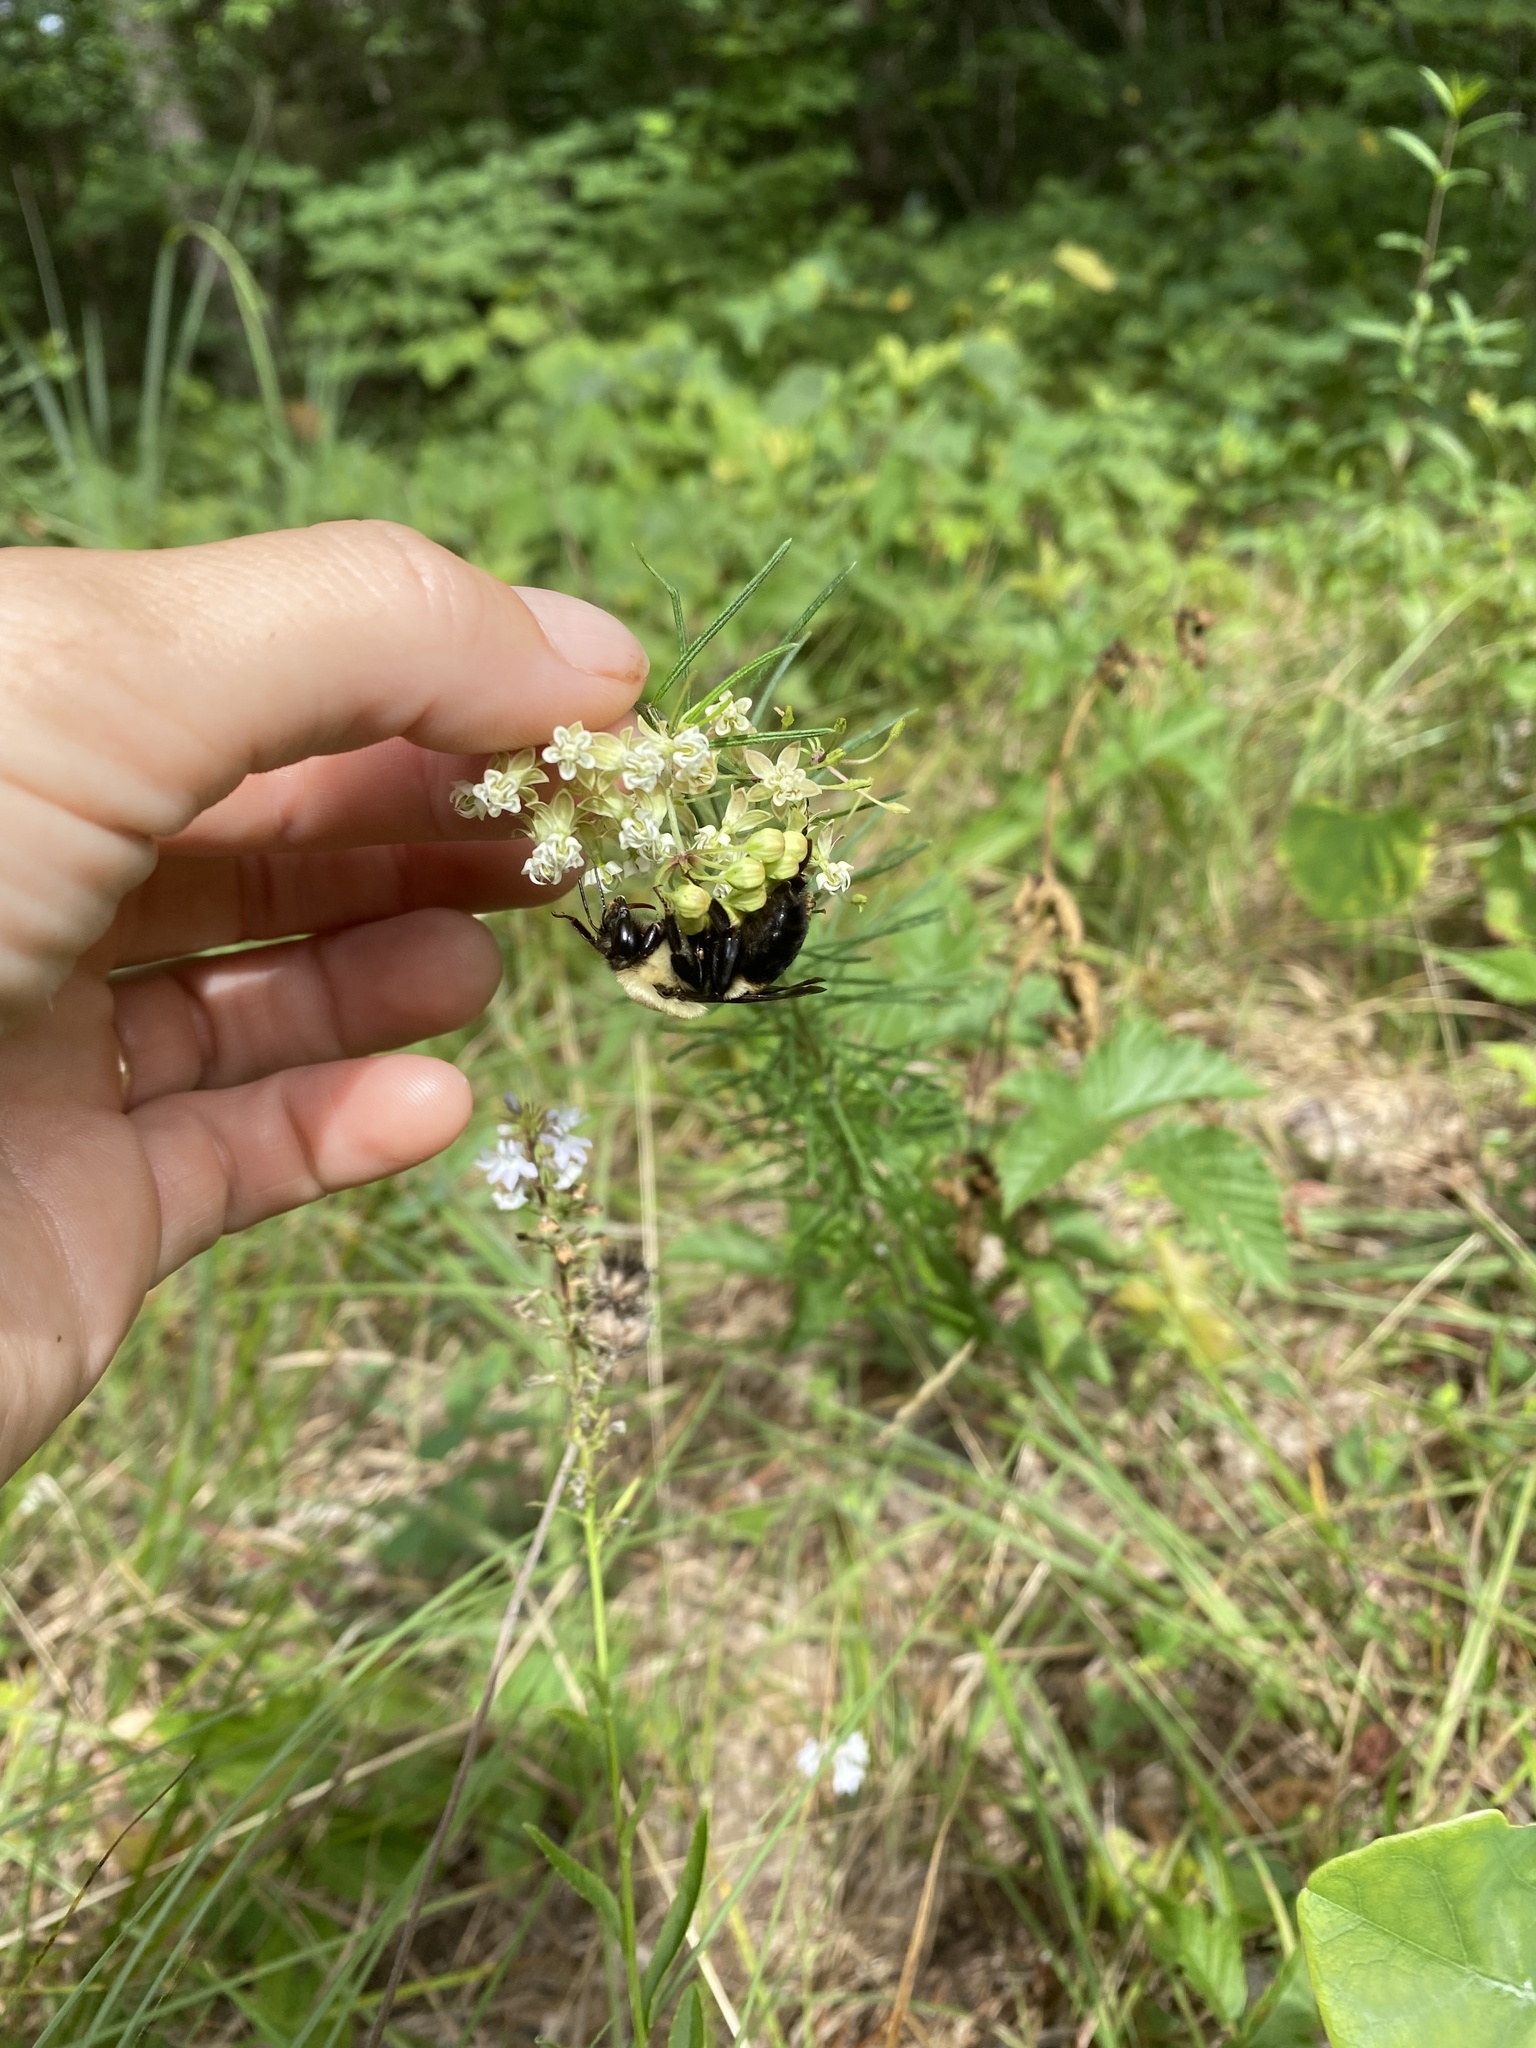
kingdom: Animalia
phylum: Arthropoda
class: Insecta
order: Hymenoptera
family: Apidae
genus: Bombus
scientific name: Bombus griseocollis
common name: Brown-belted bumble bee
